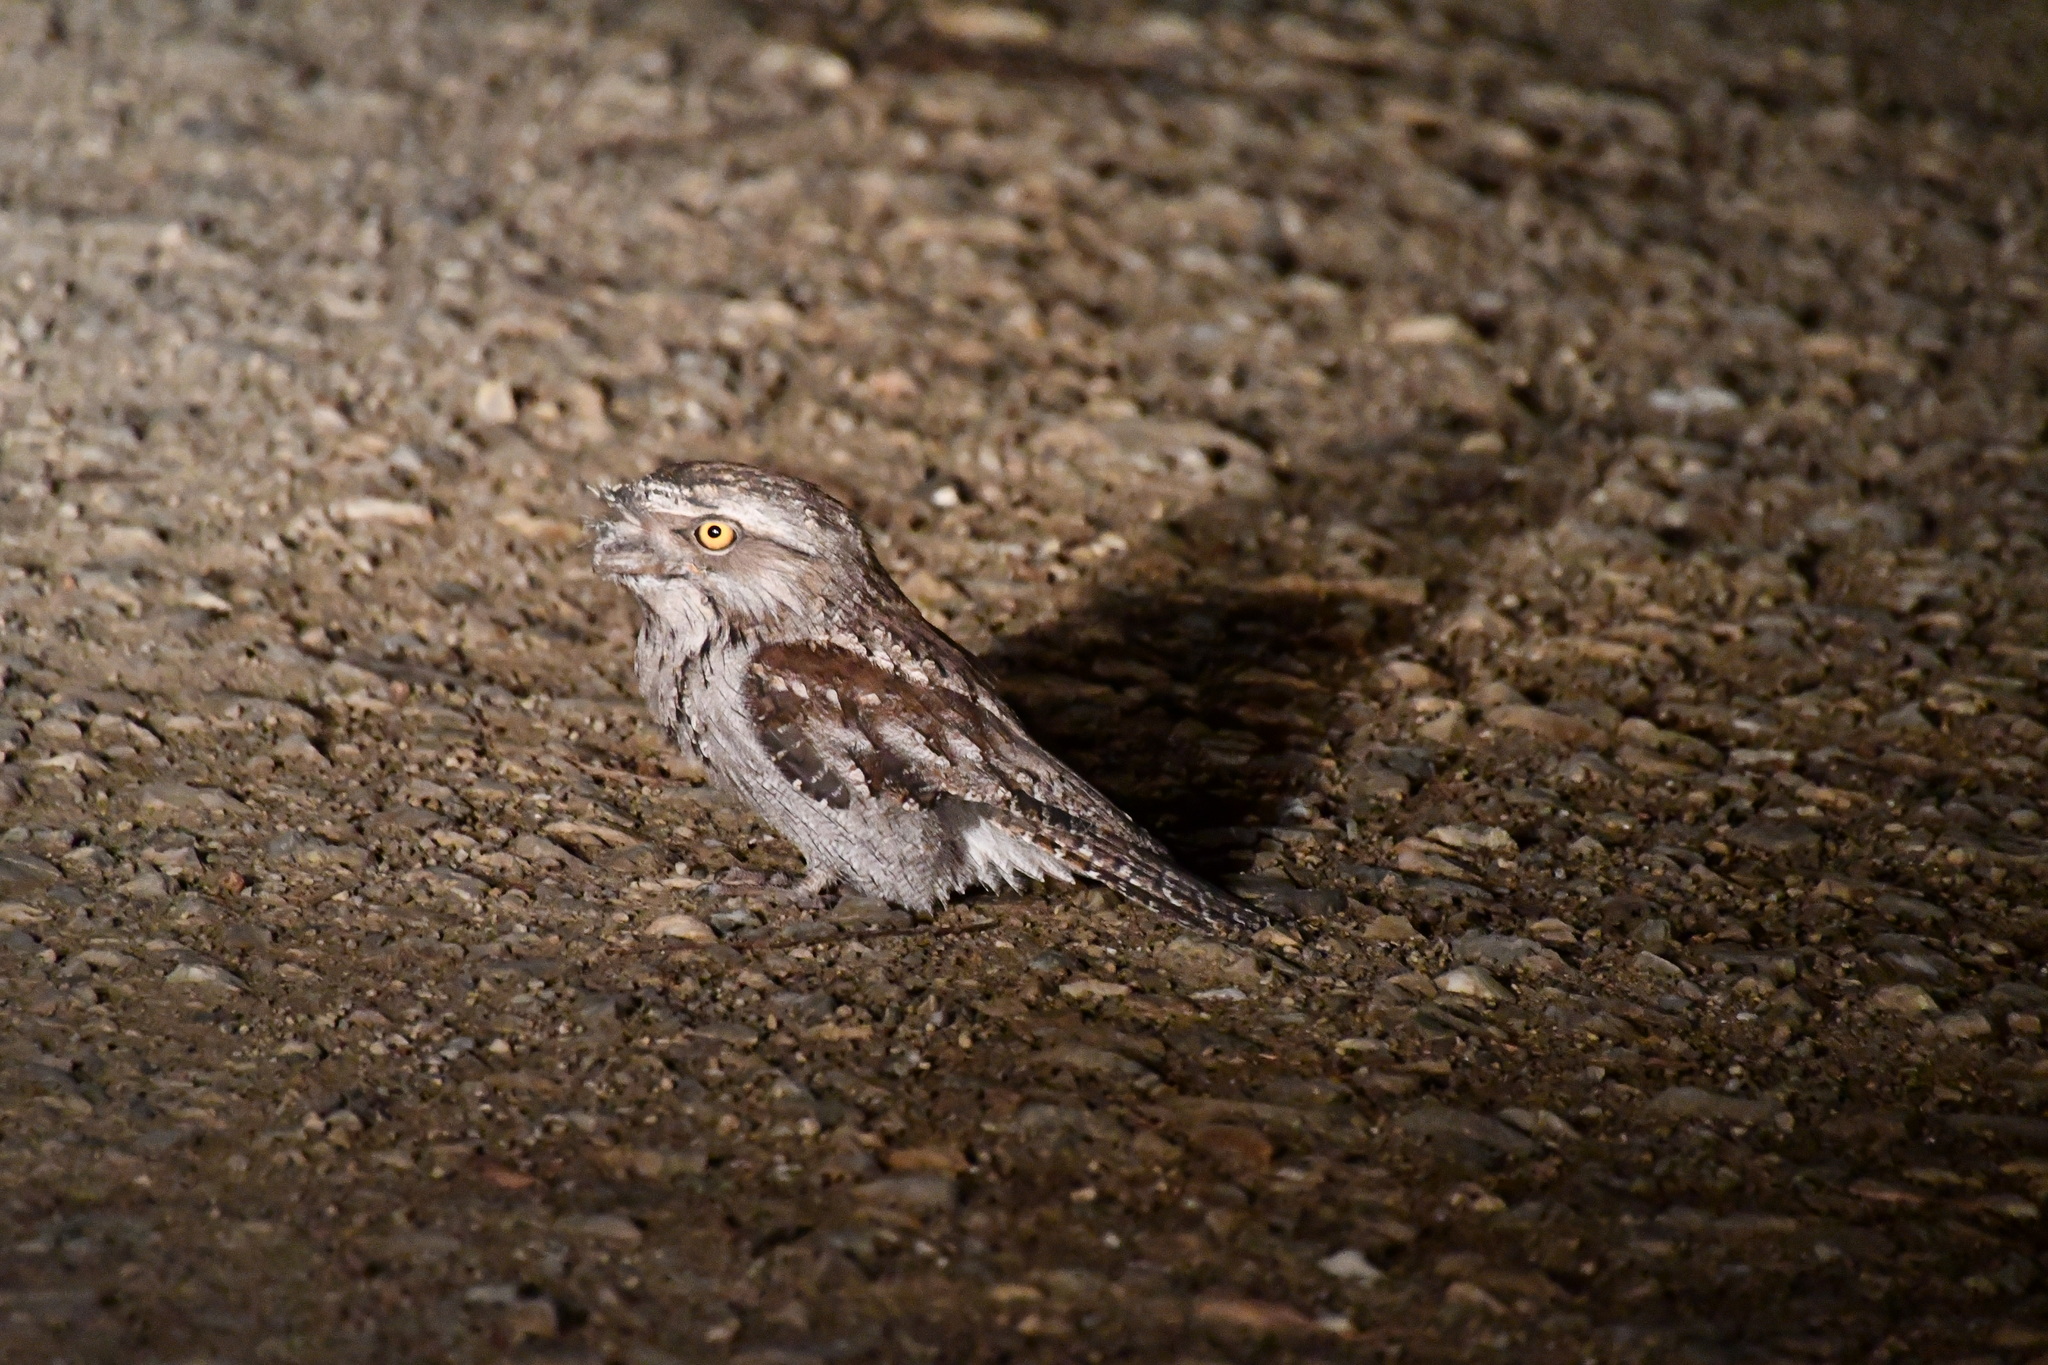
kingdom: Animalia
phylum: Chordata
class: Aves
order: Caprimulgiformes
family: Podargidae
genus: Podargus
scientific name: Podargus strigoides
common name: Tawny frogmouth
